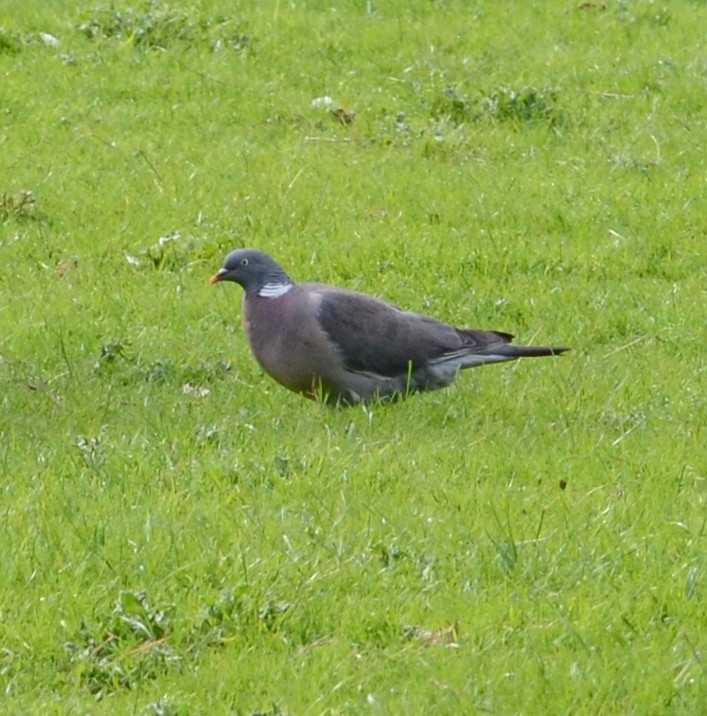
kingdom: Animalia
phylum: Chordata
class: Aves
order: Columbiformes
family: Columbidae
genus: Columba
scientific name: Columba palumbus
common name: Common wood pigeon
